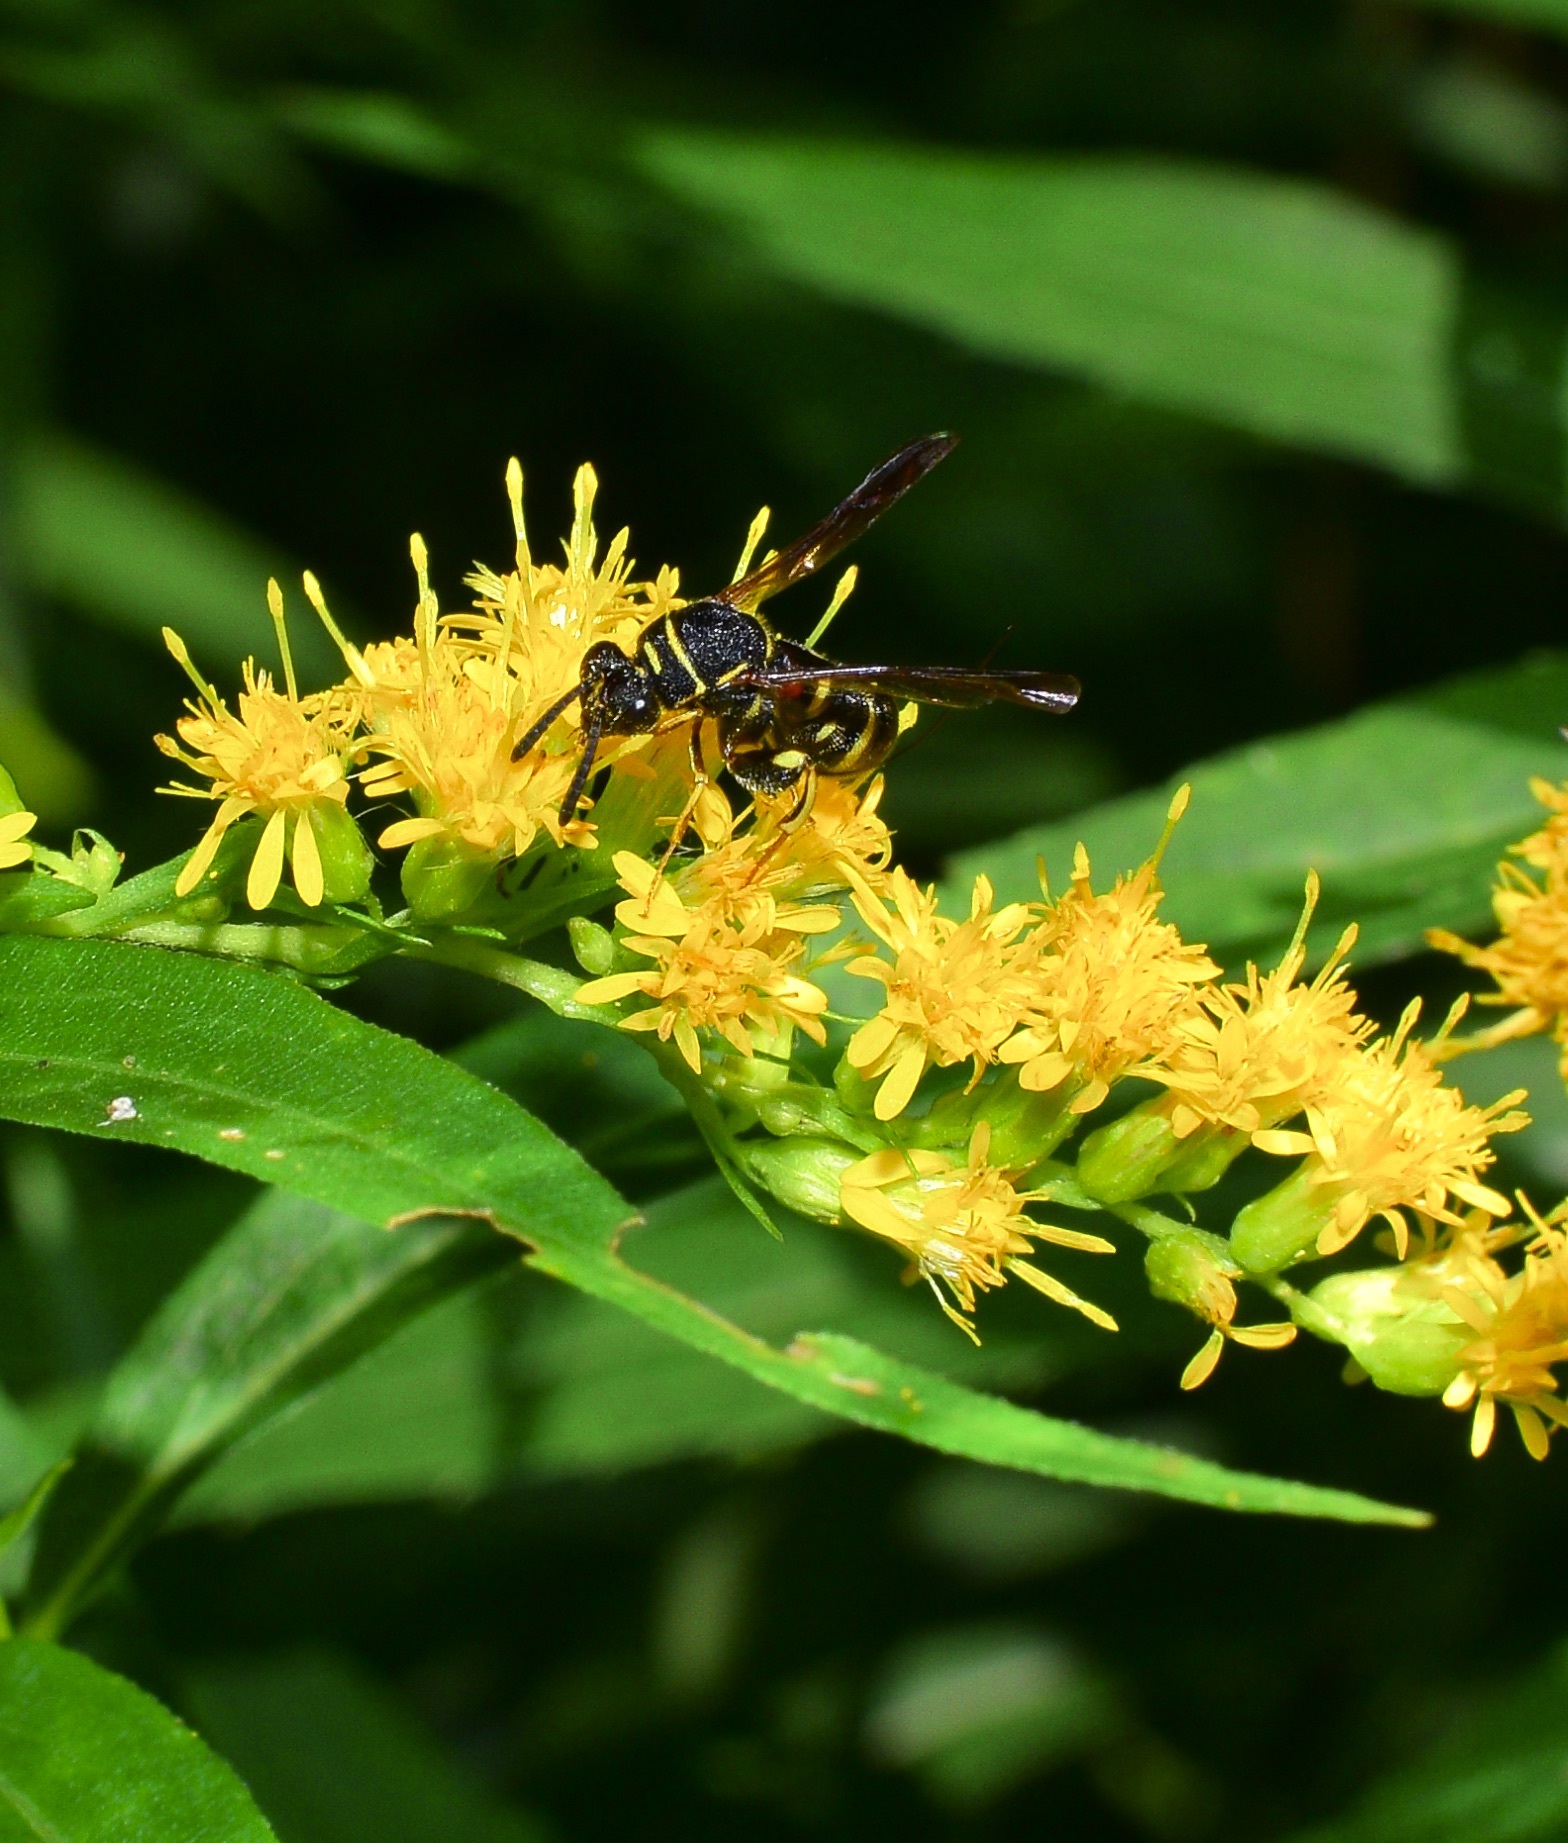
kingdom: Animalia
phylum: Arthropoda
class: Insecta
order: Hymenoptera
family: Leucospidae
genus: Leucospis
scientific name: Leucospis affinis
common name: Wasp
